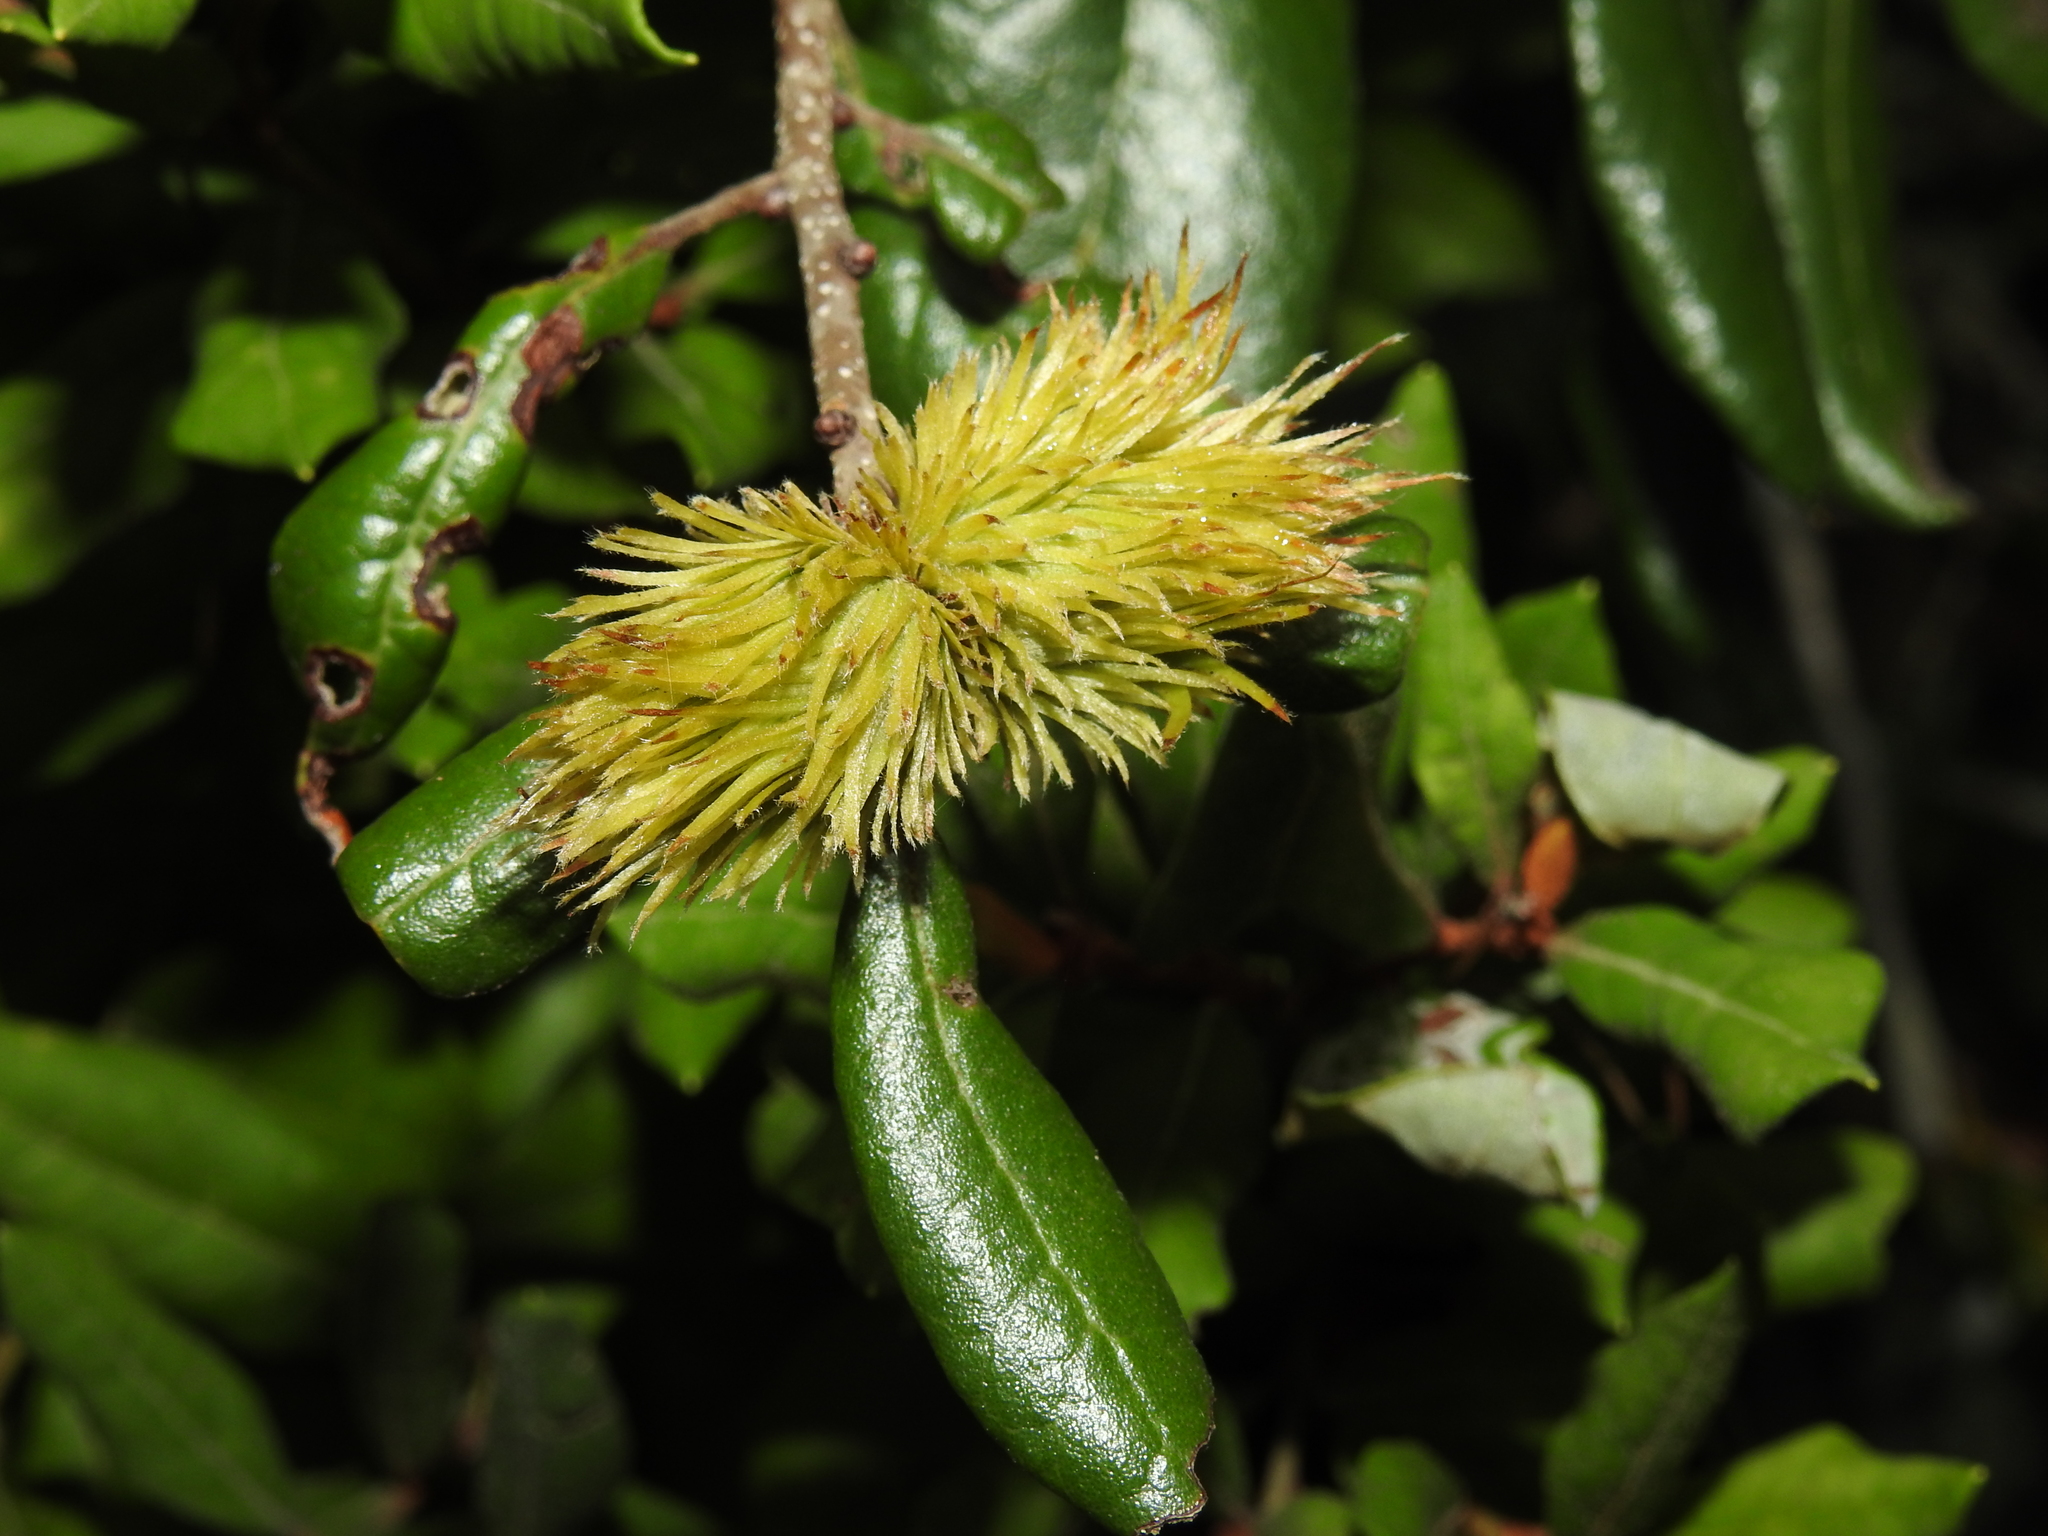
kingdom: Animalia
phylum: Arthropoda
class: Insecta
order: Hymenoptera
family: Cynipidae
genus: Andricus
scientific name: Andricus quercusfoliatus
